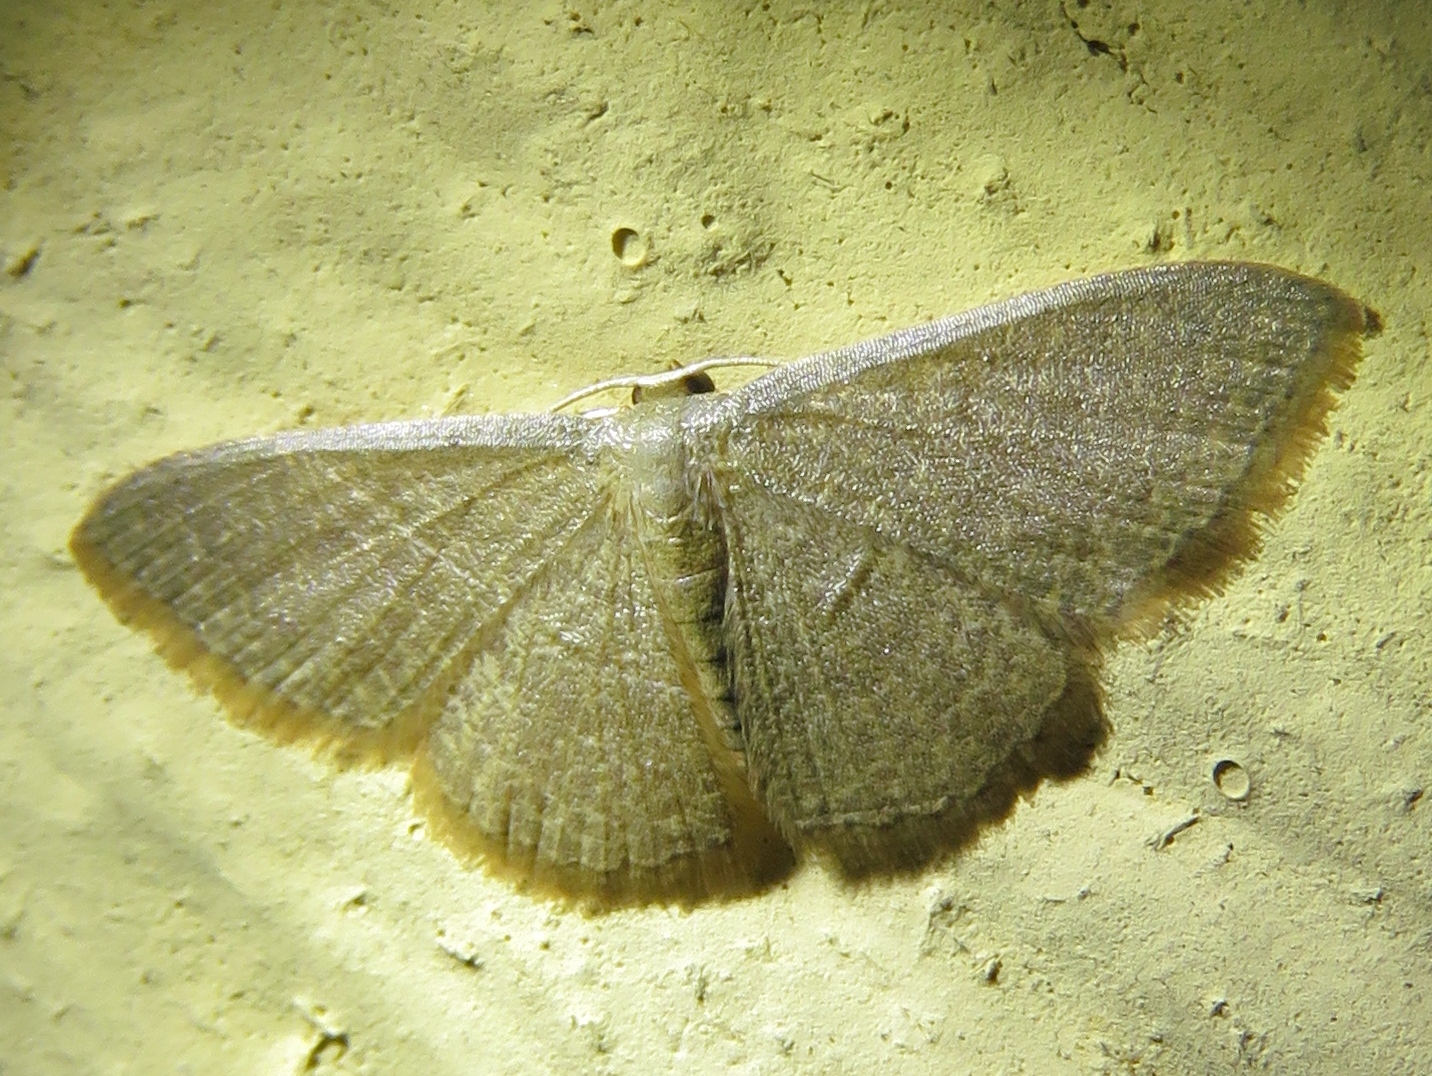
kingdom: Animalia
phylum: Arthropoda
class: Insecta
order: Lepidoptera
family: Geometridae
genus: Pleuroprucha
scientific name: Pleuroprucha insulsaria
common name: Common tan wave
